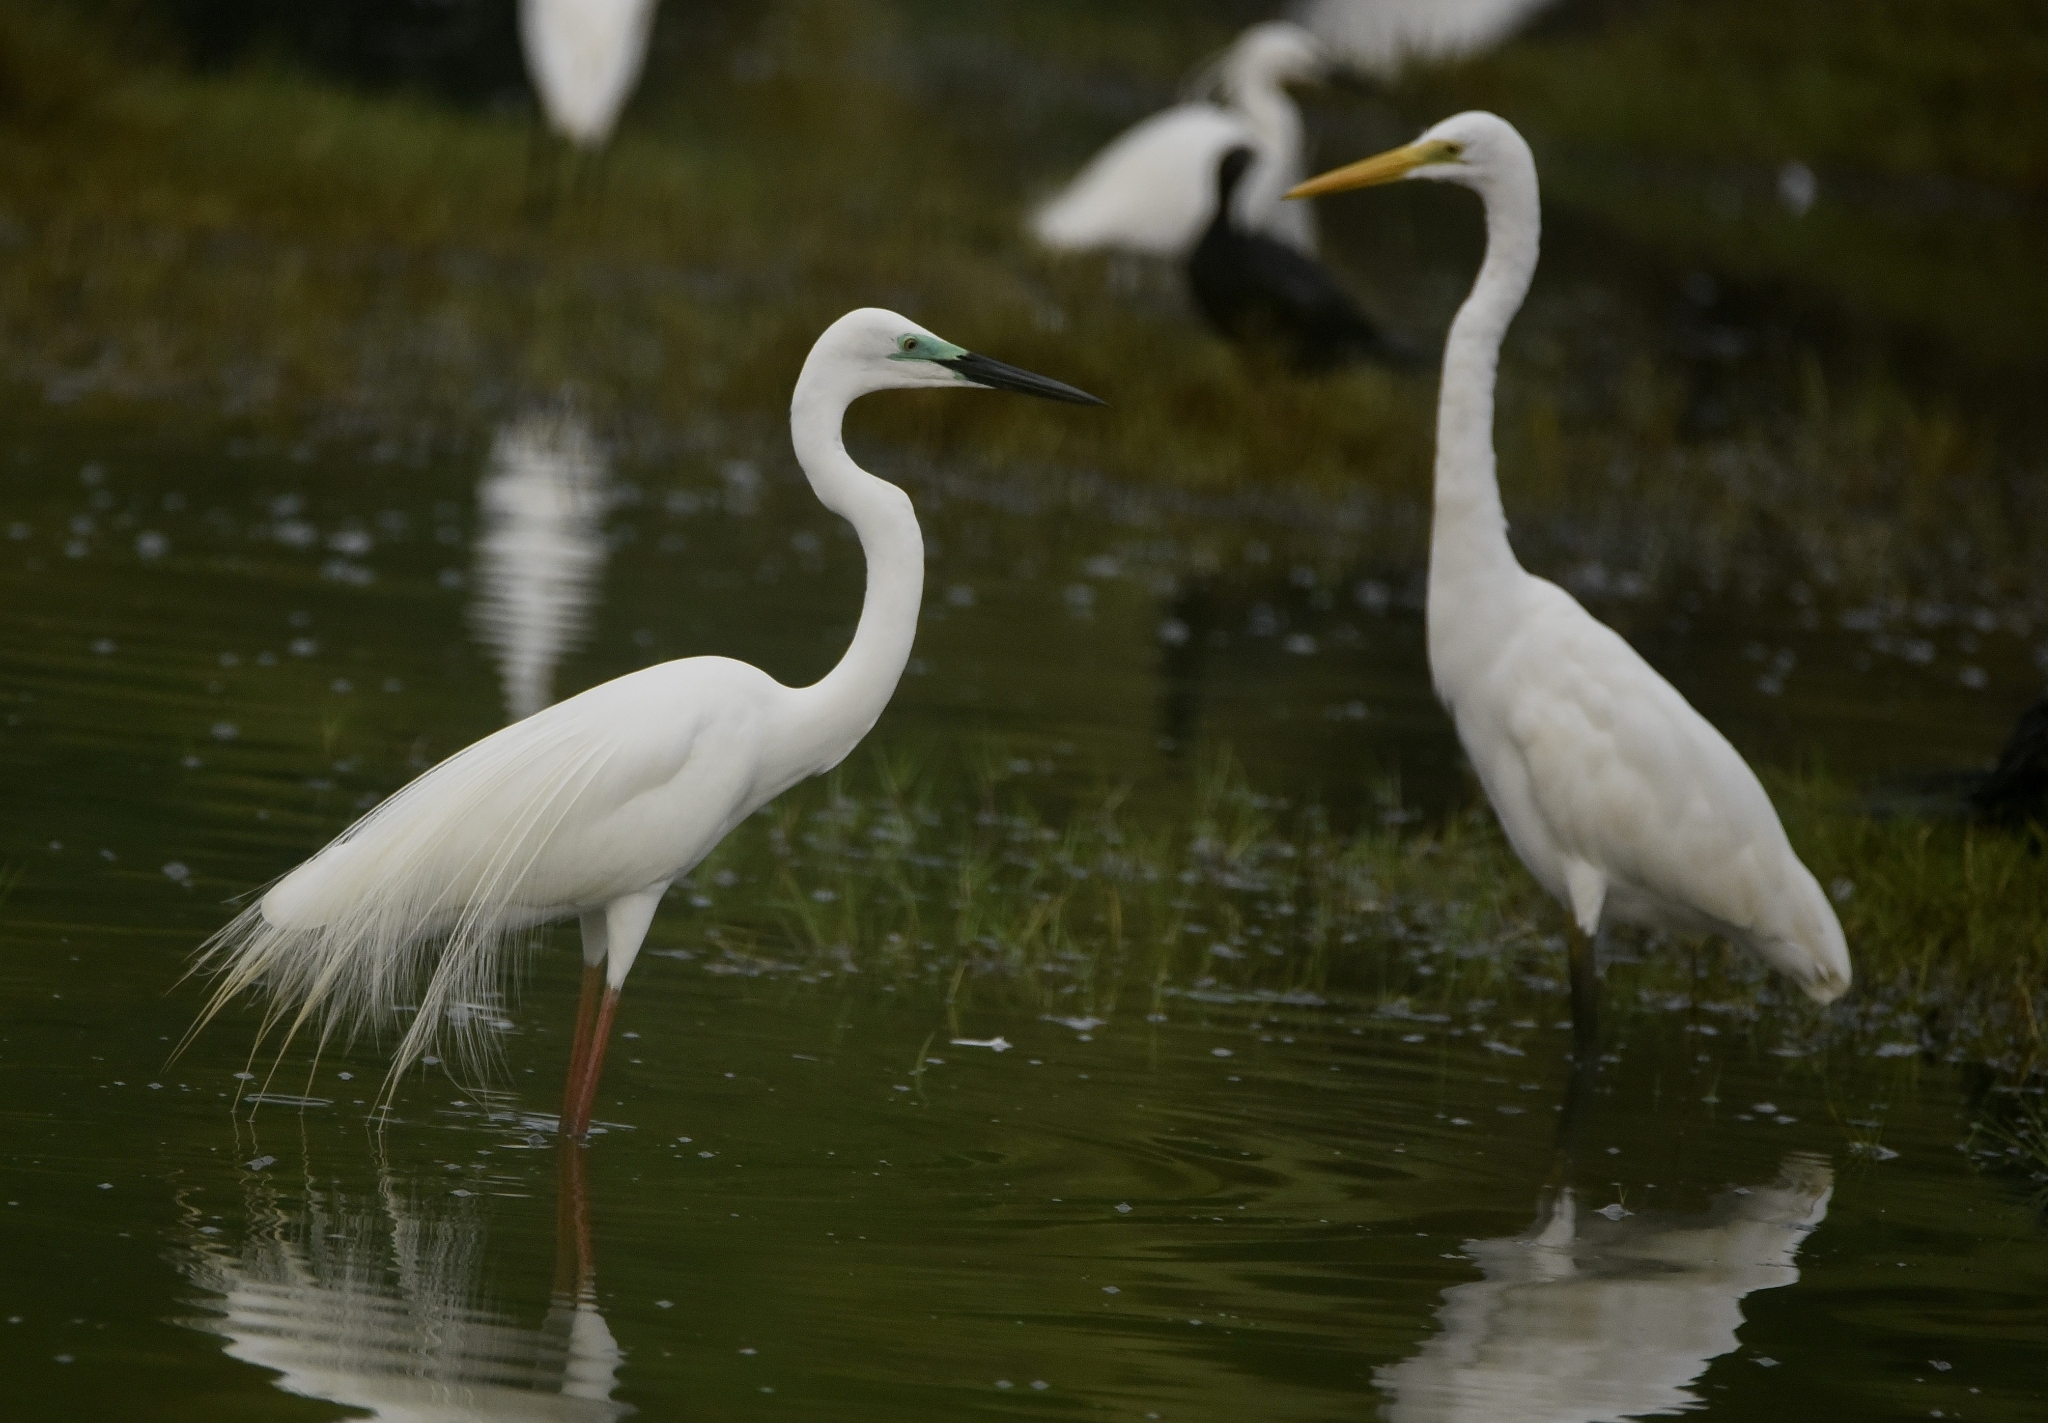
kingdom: Animalia
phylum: Chordata
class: Aves
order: Pelecaniformes
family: Ardeidae
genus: Ardea
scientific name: Ardea alba
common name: Great egret
